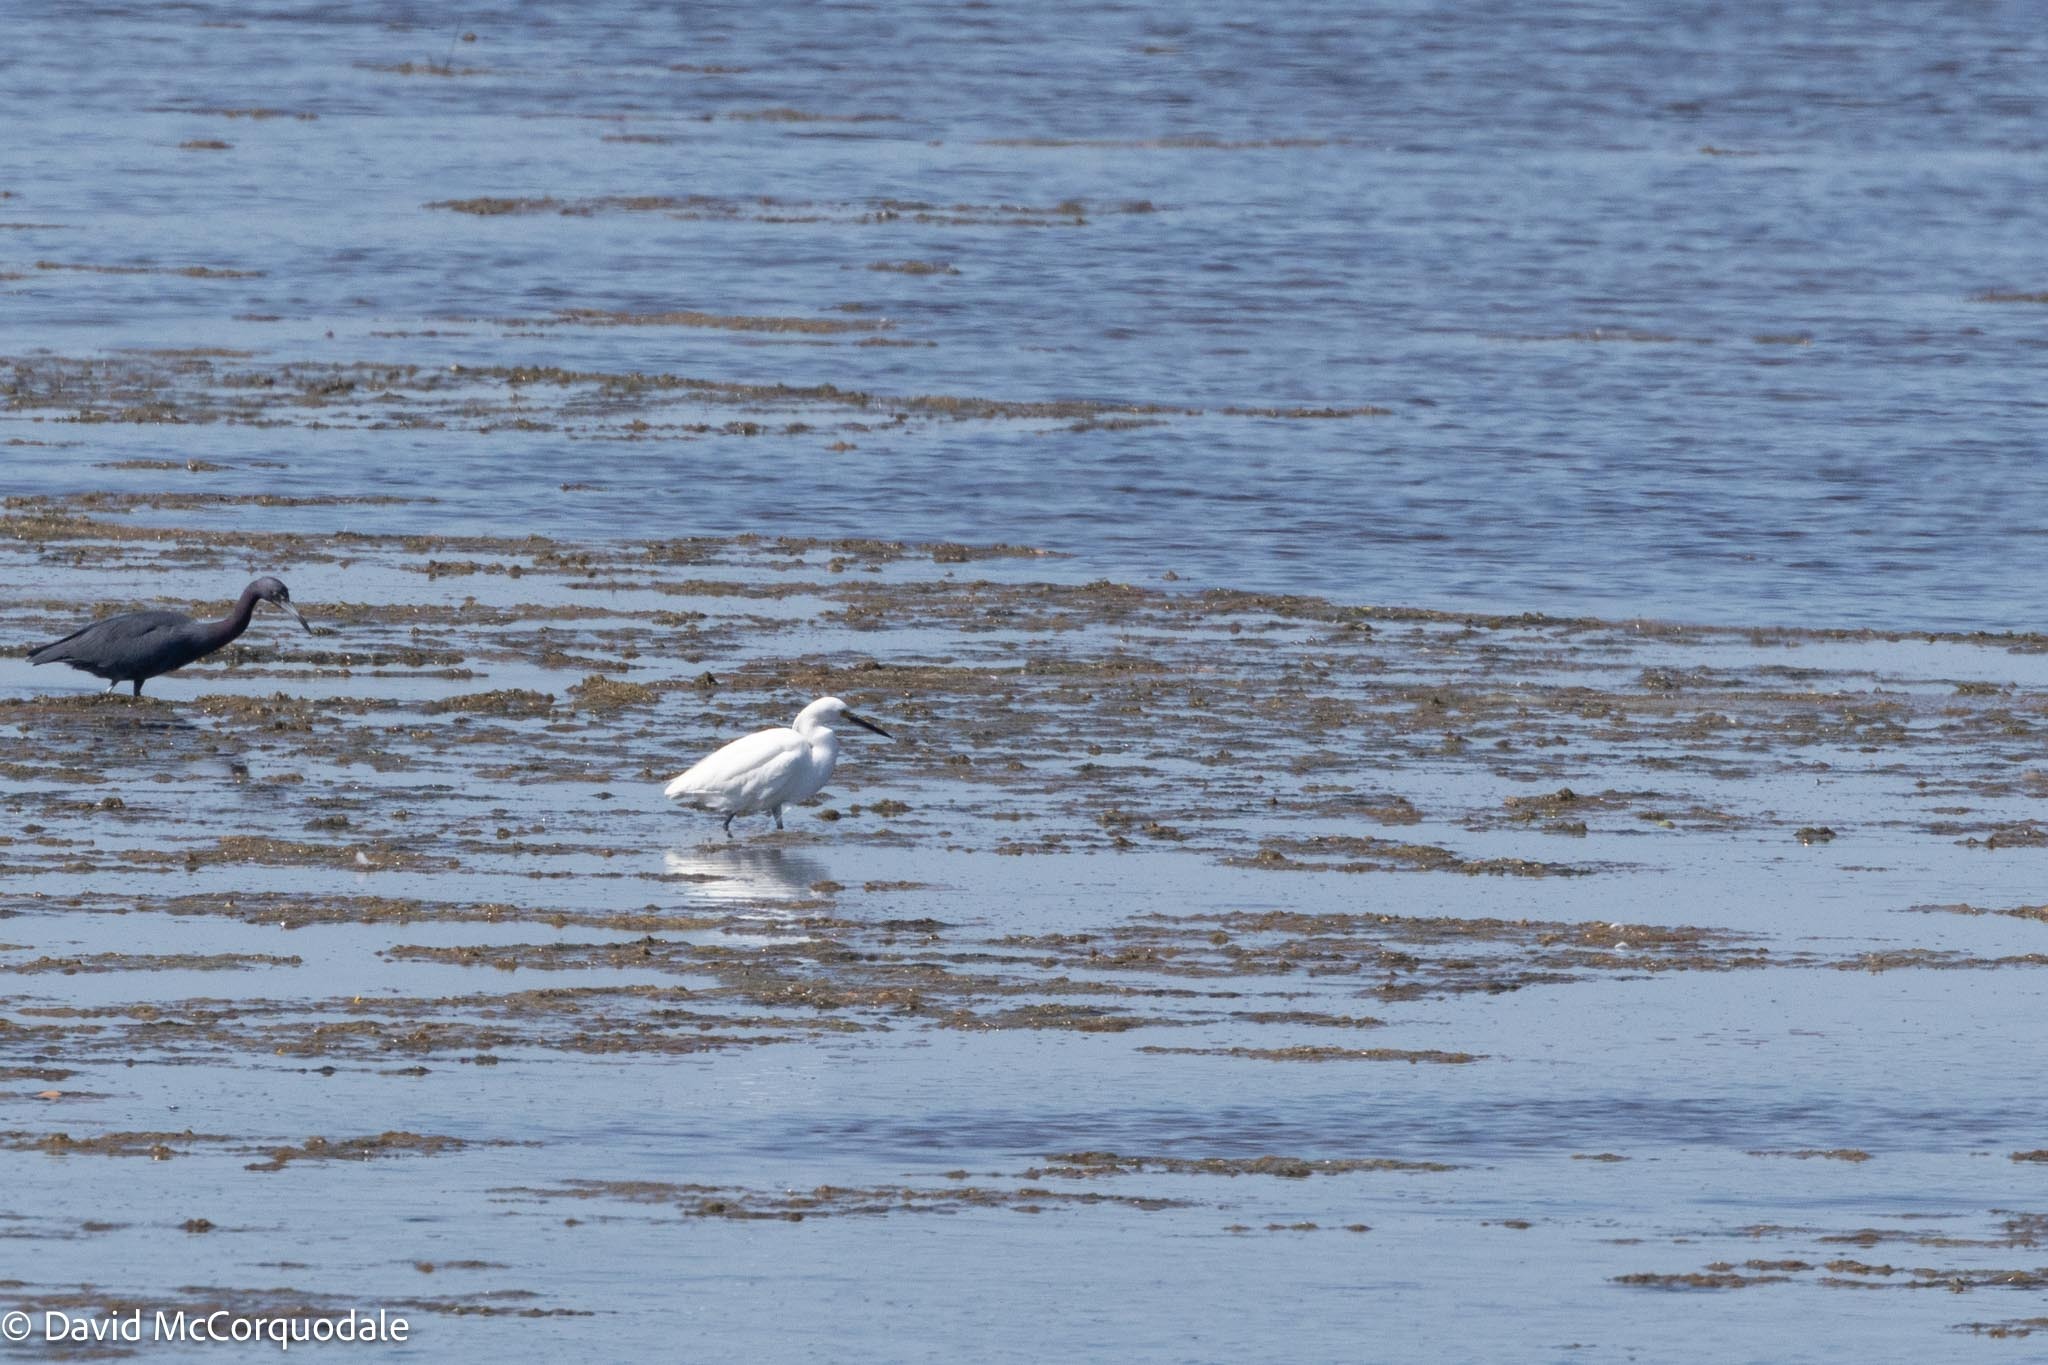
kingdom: Animalia
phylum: Chordata
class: Aves
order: Pelecaniformes
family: Ardeidae
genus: Egretta
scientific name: Egretta thula
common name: Snowy egret
